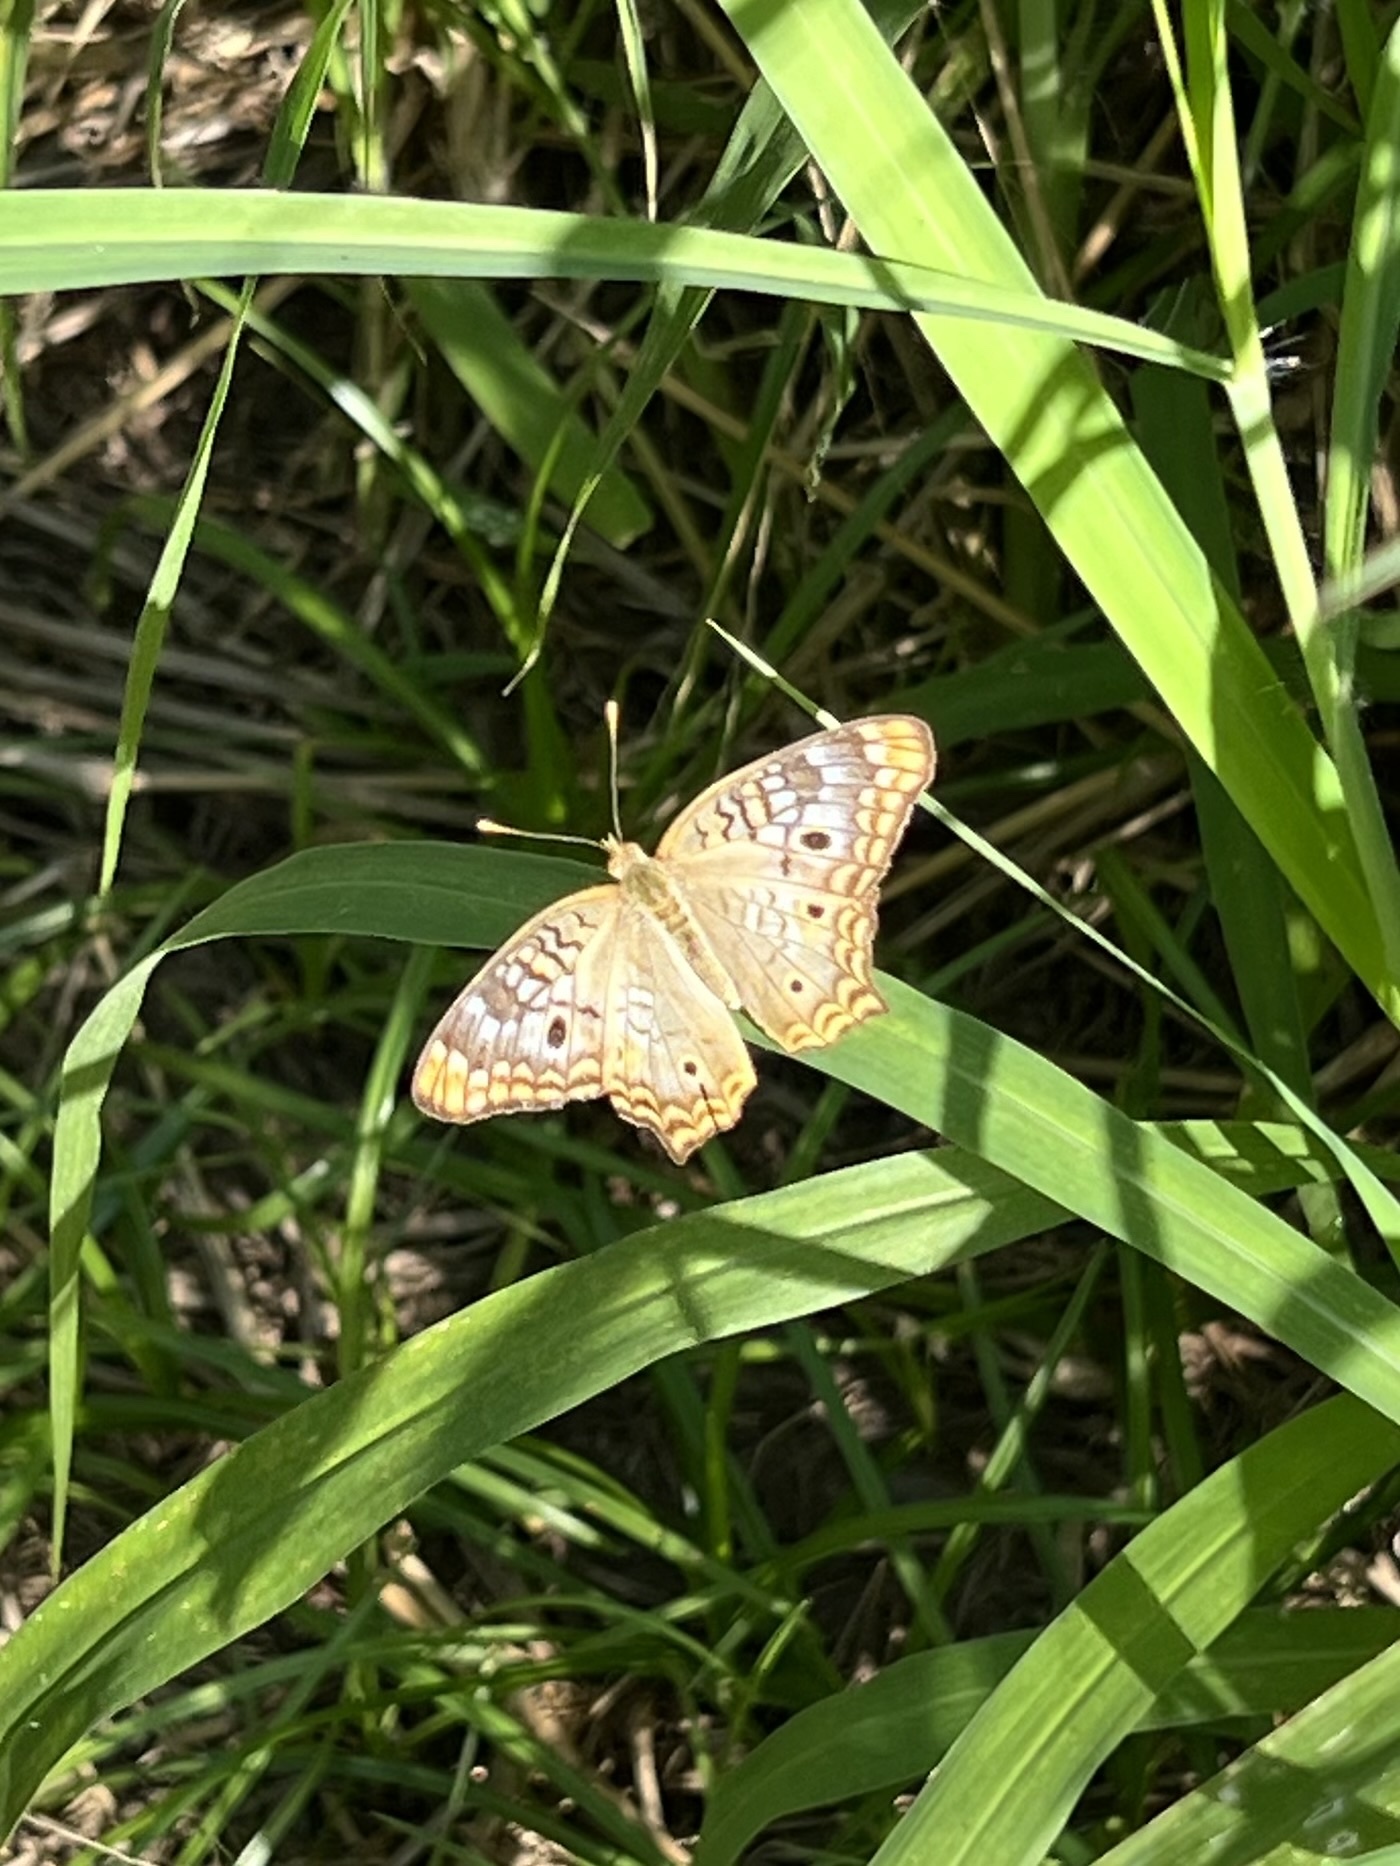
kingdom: Animalia
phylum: Arthropoda
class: Insecta
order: Lepidoptera
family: Nymphalidae
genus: Anartia
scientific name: Anartia jatrophae
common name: White peacock
